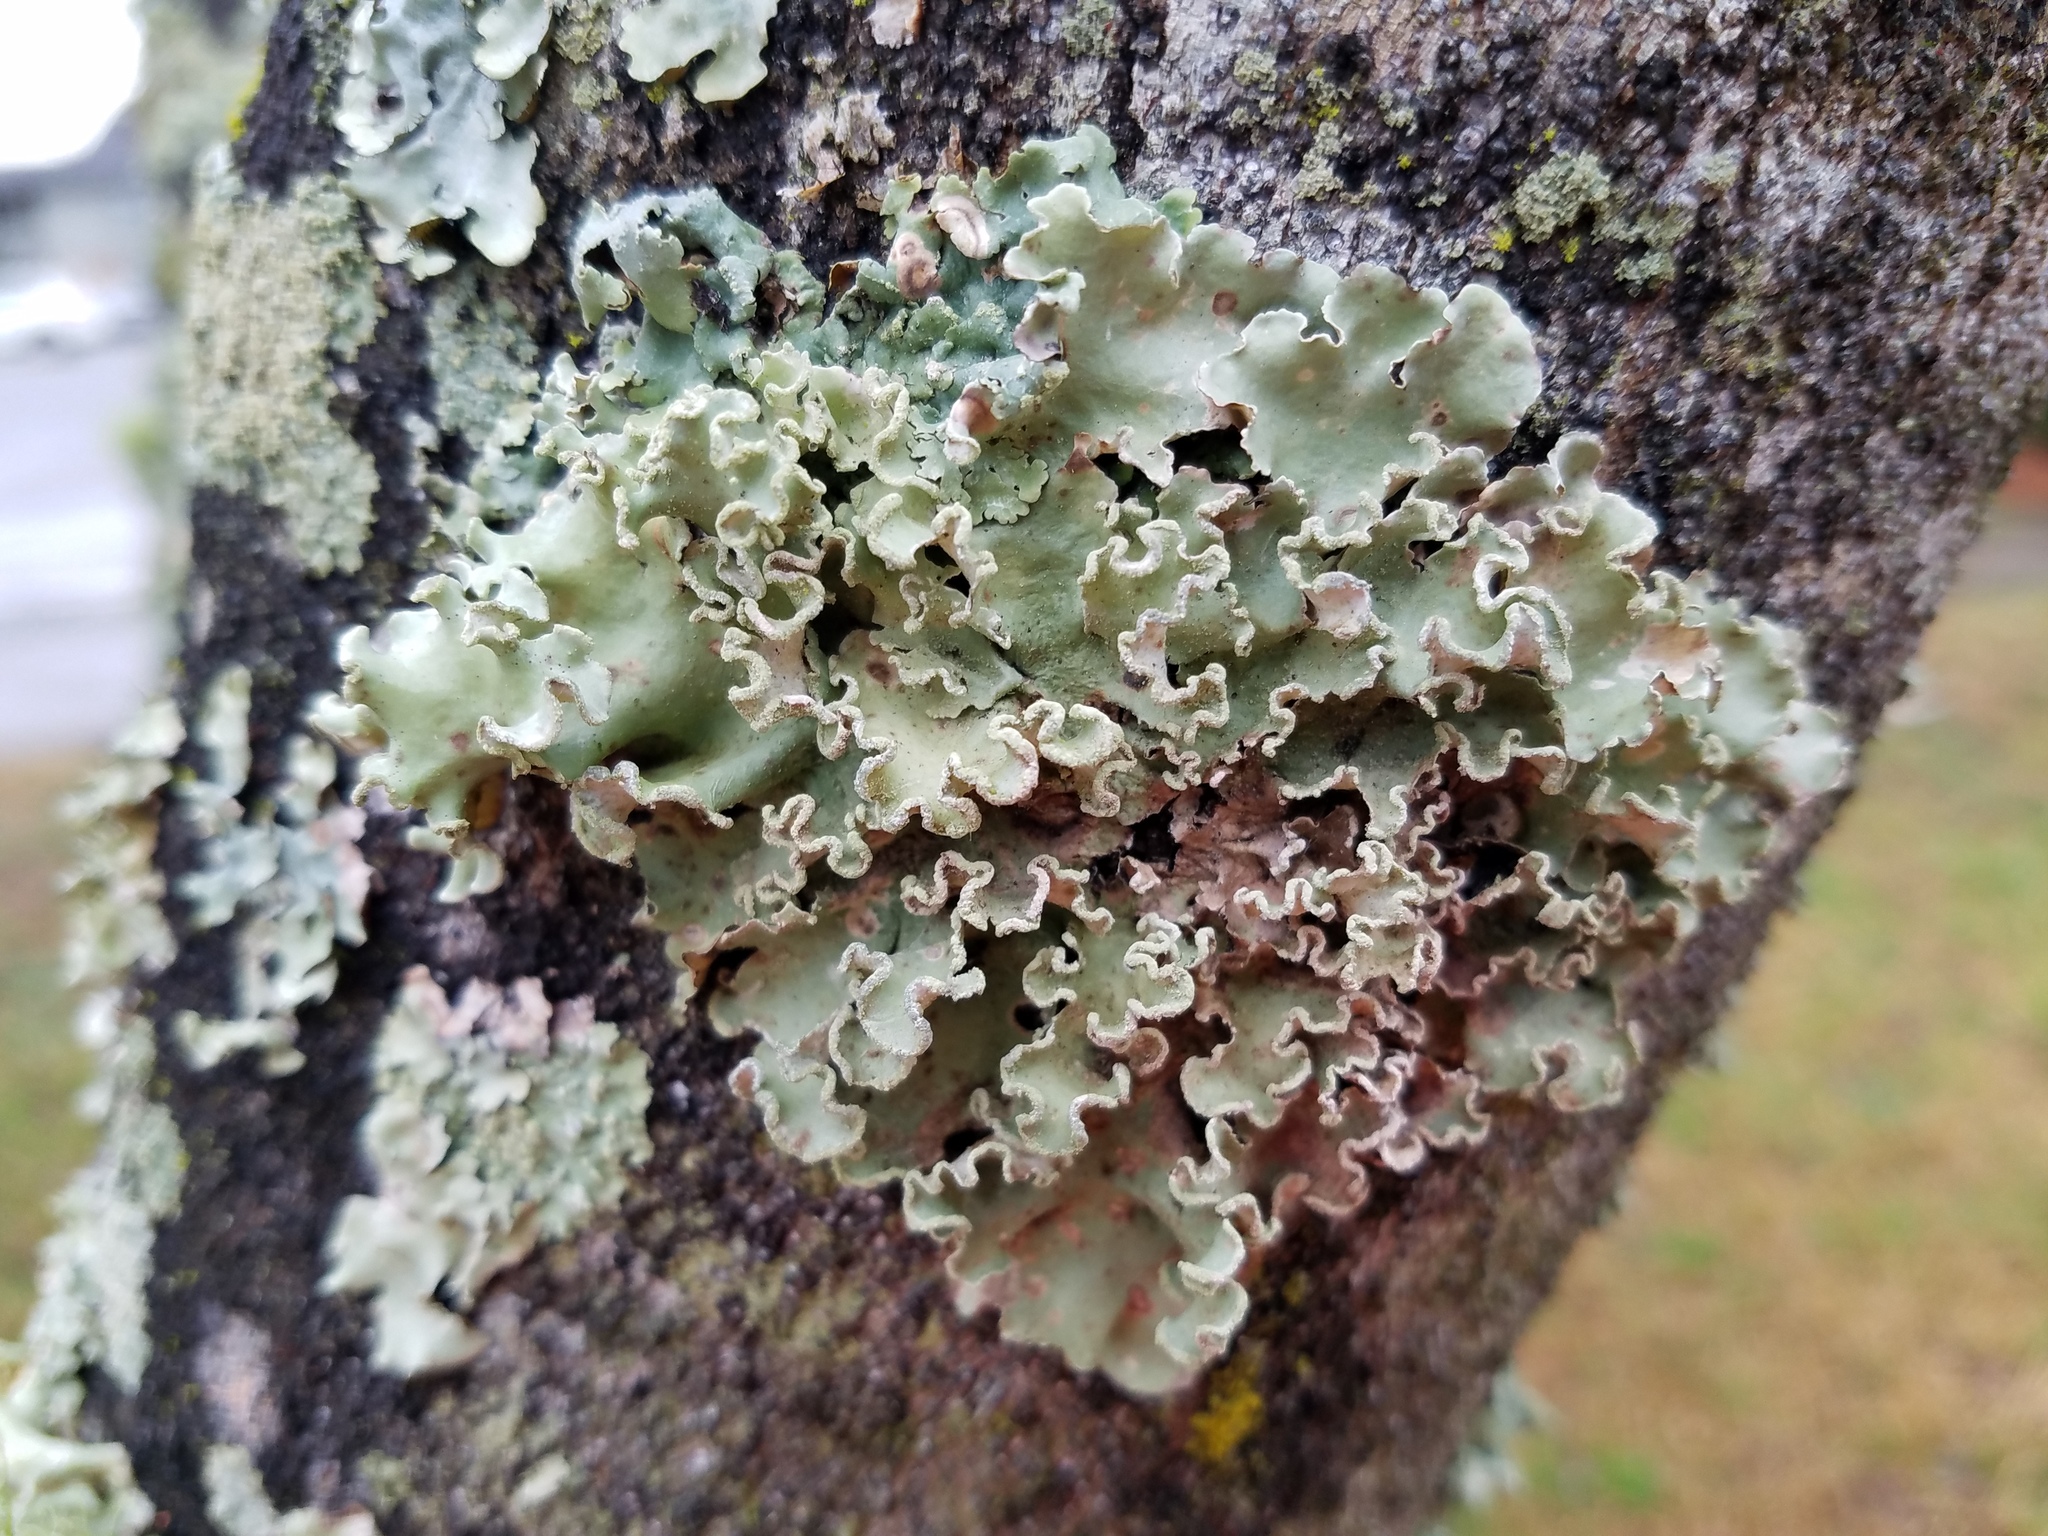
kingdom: Fungi
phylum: Ascomycota
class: Lecanoromycetes
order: Lecanorales
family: Parmeliaceae
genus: Parmotrema
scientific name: Parmotrema austrosinense
